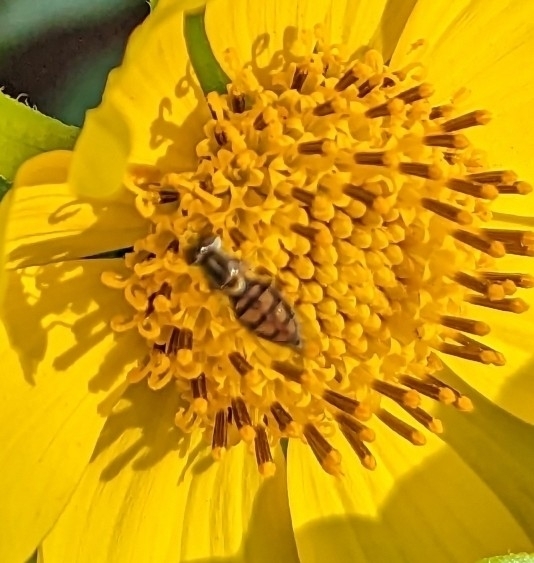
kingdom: Animalia
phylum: Arthropoda
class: Insecta
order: Diptera
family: Syrphidae
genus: Toxomerus
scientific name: Toxomerus marginatus
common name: Syrphid fly
